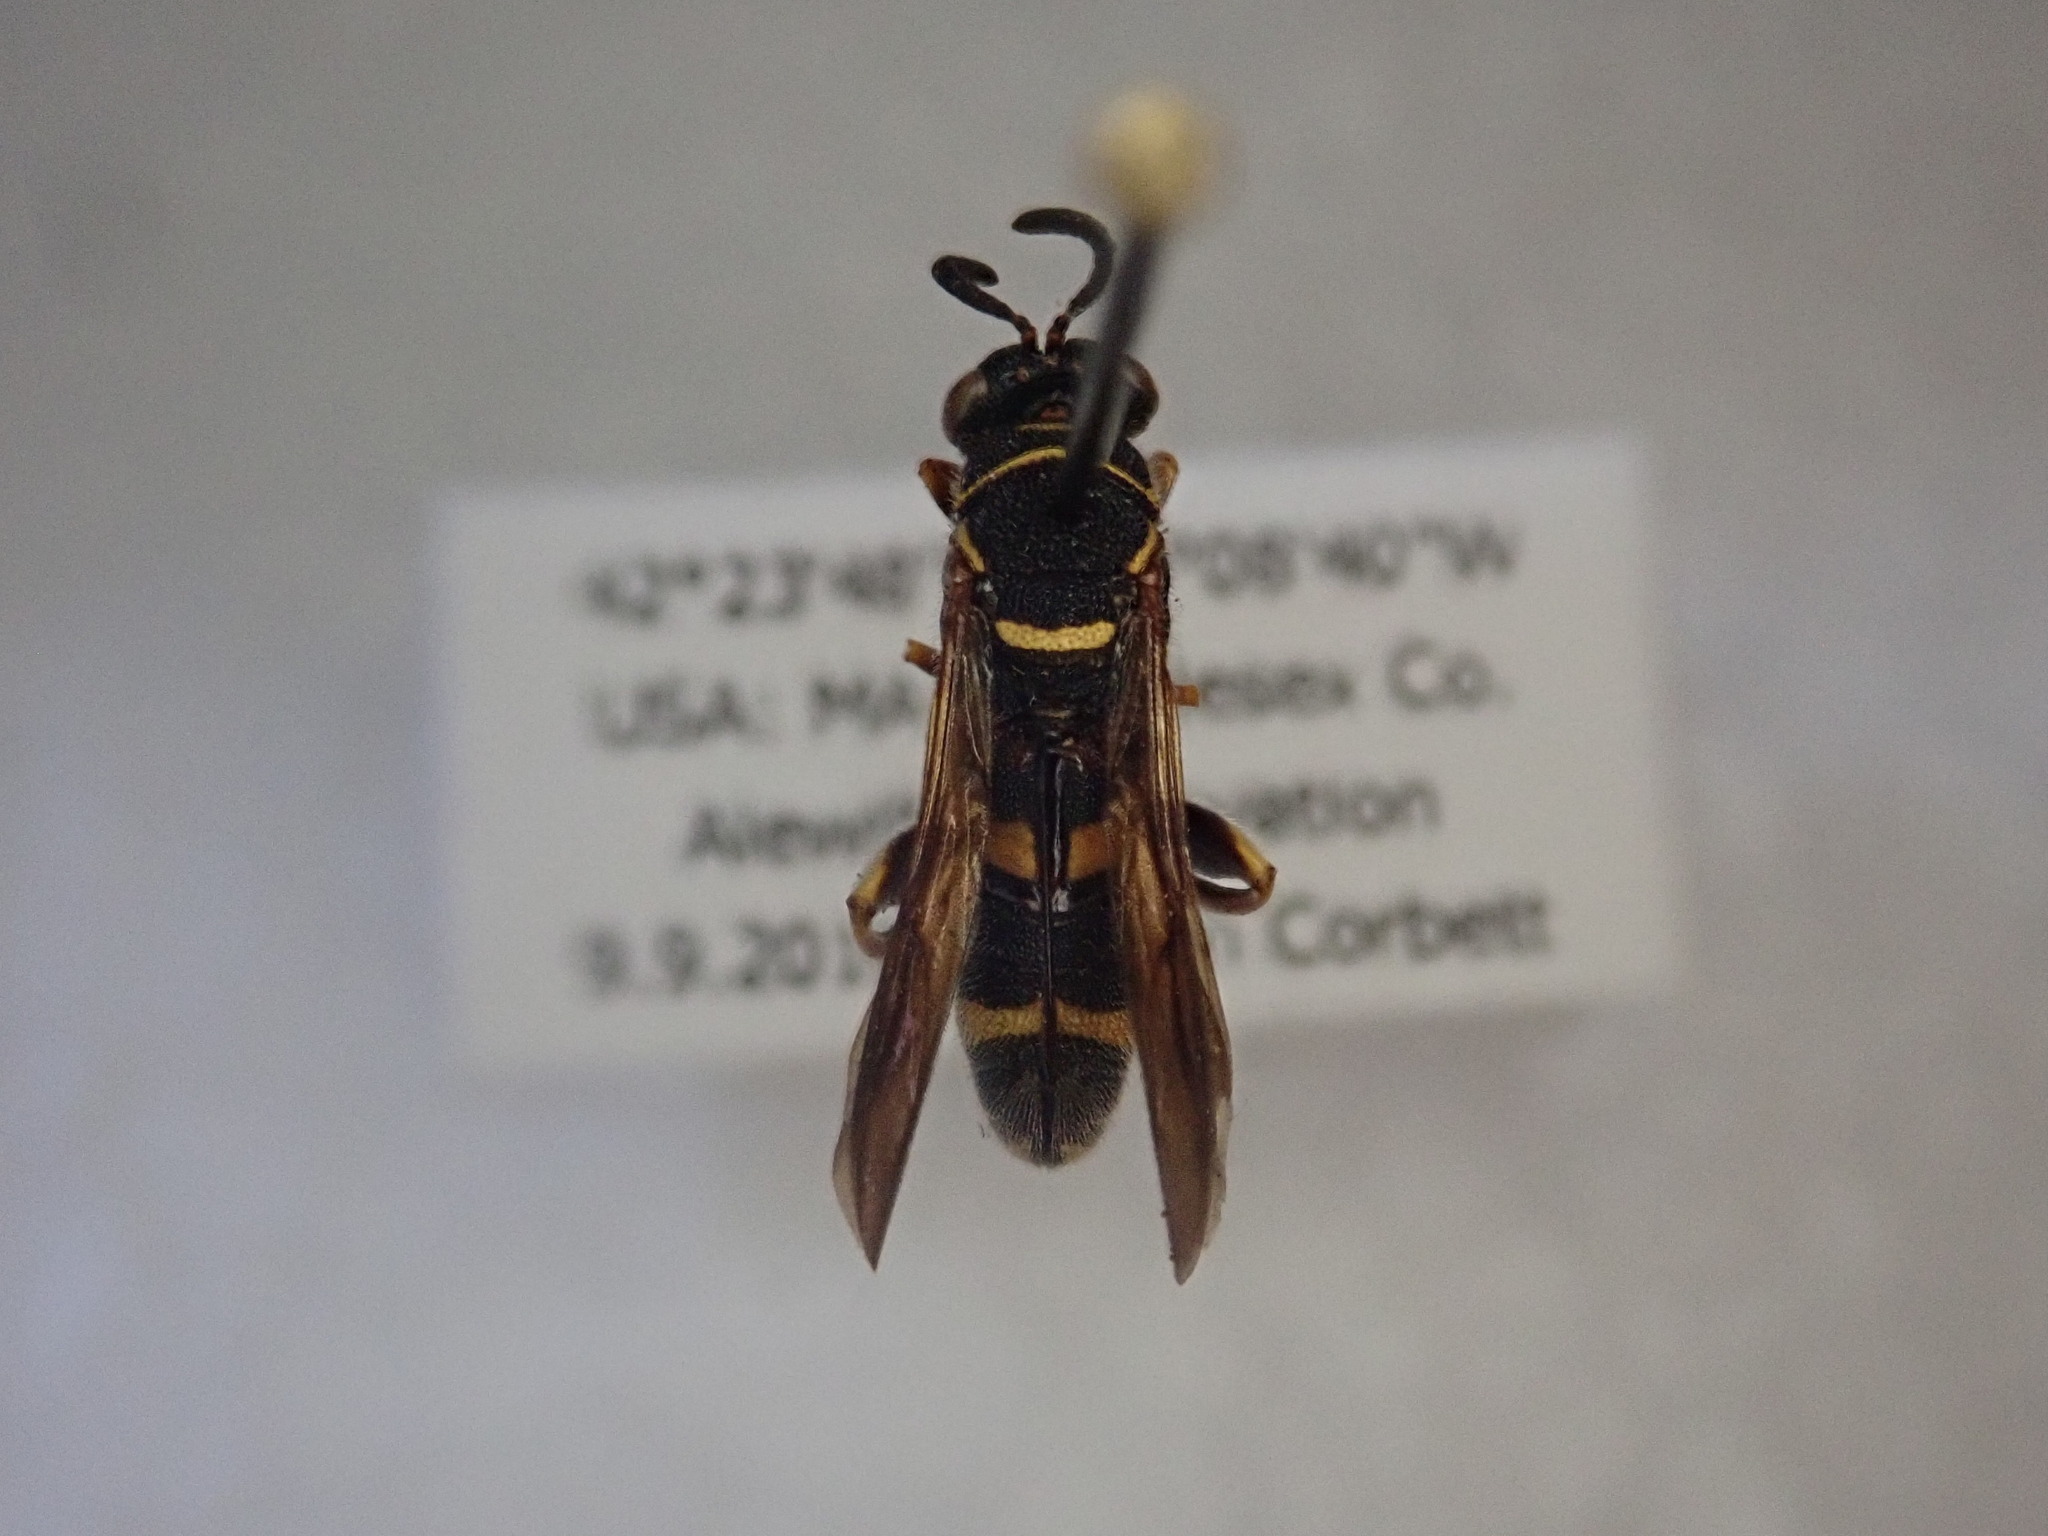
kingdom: Animalia
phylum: Arthropoda
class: Insecta
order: Hymenoptera
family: Leucospidae
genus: Leucospis
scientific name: Leucospis affinis
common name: Wasp
